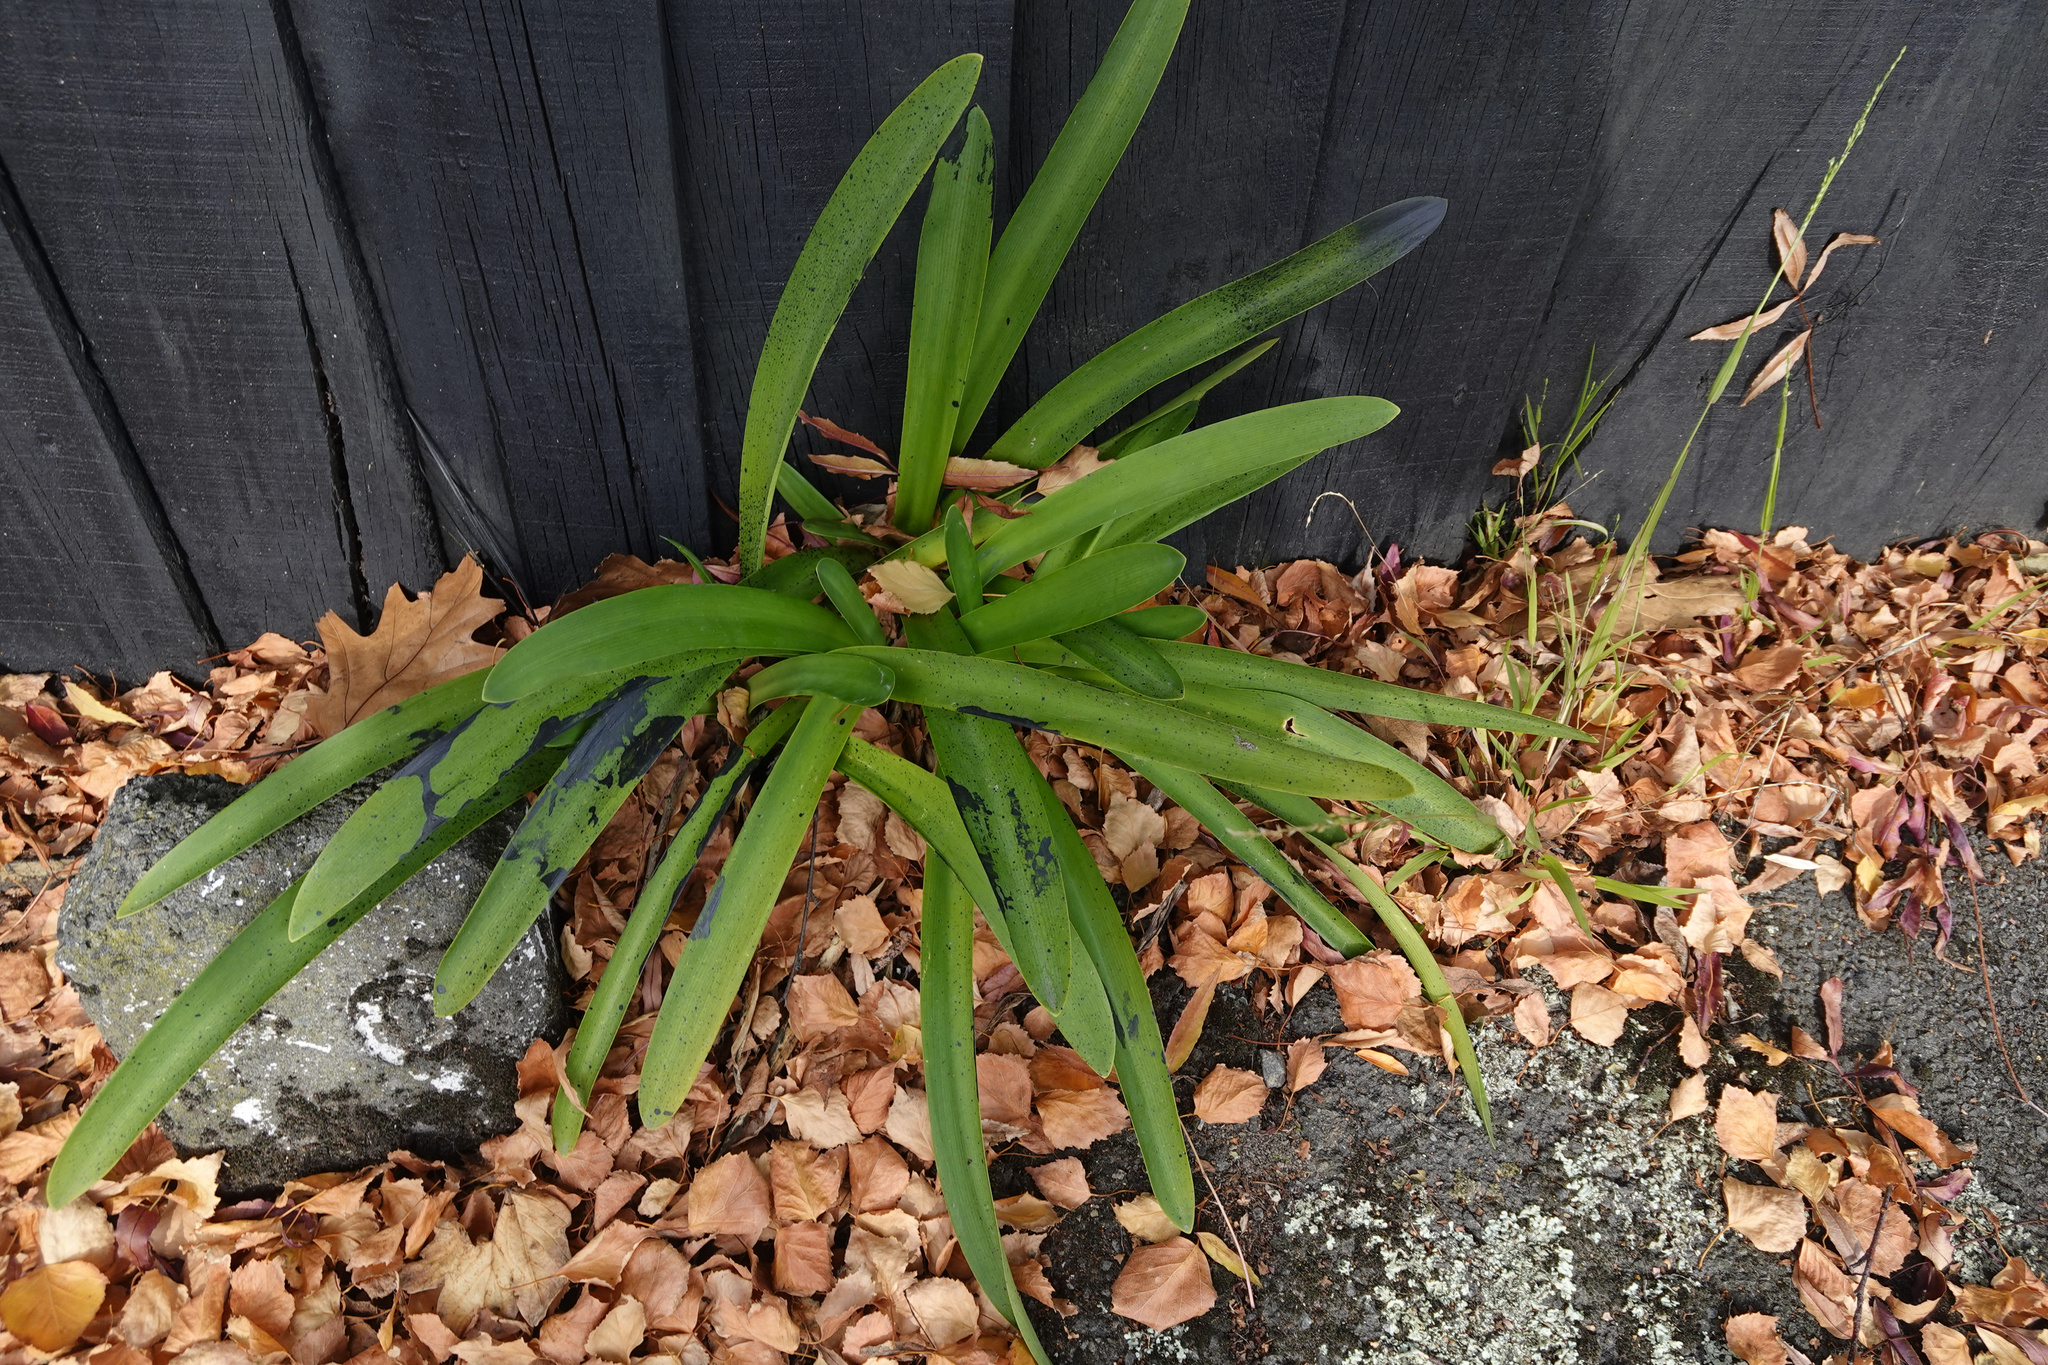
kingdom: Plantae
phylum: Tracheophyta
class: Liliopsida
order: Asparagales
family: Amaryllidaceae
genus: Agapanthus
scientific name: Agapanthus praecox
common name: African-lily
